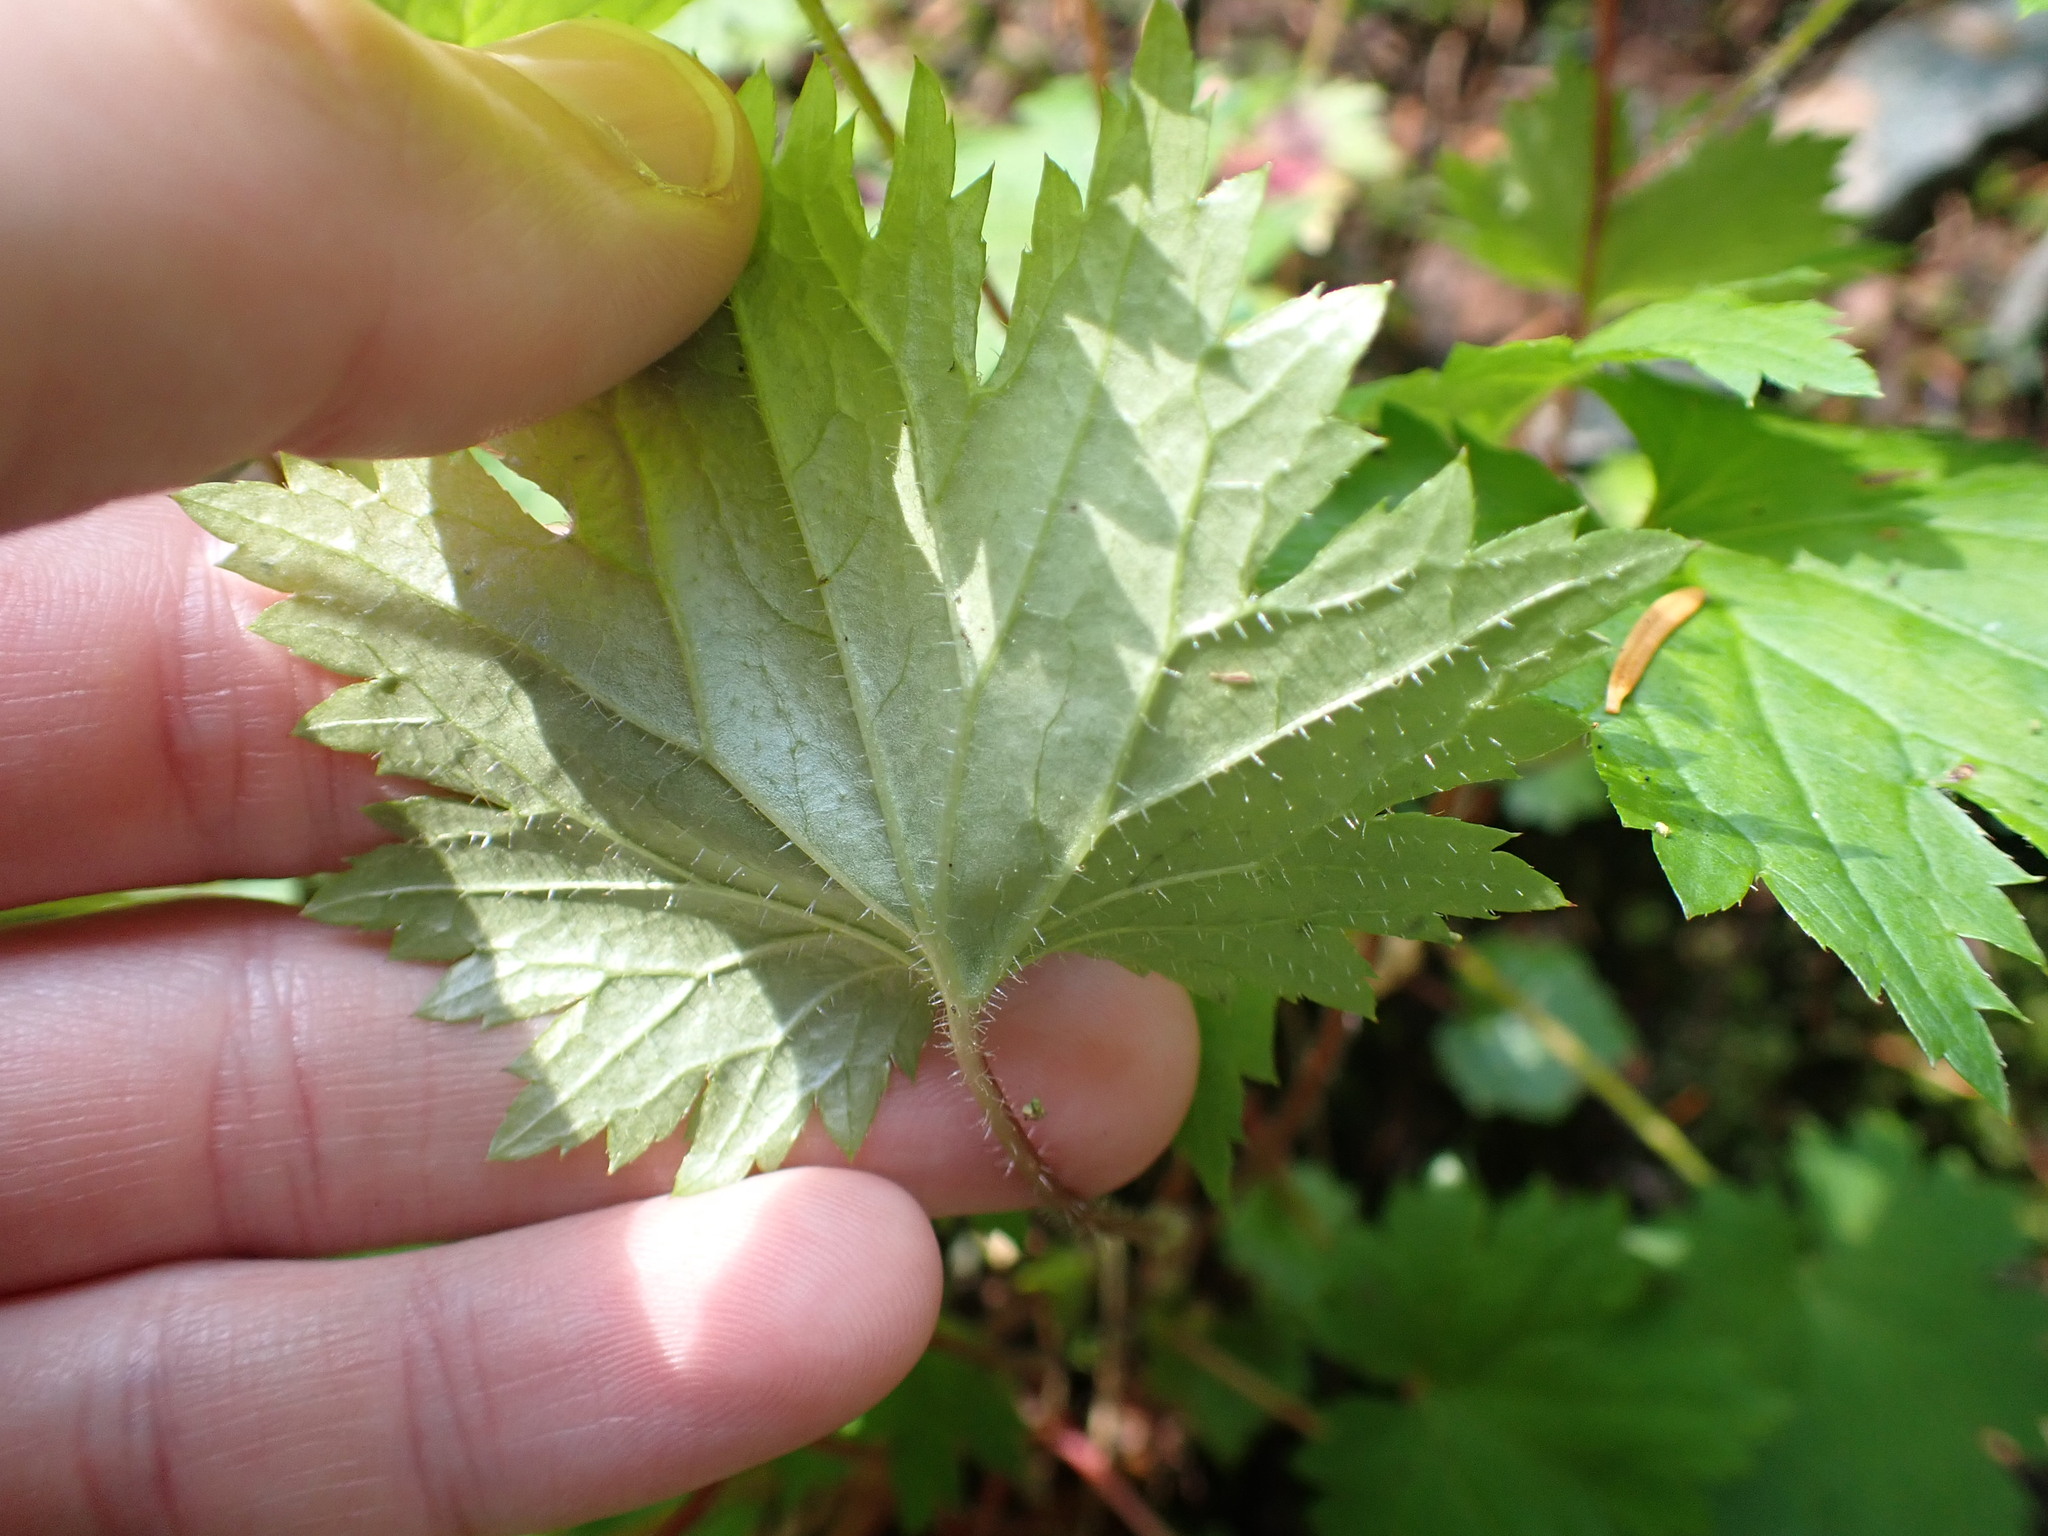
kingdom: Plantae
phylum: Tracheophyta
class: Magnoliopsida
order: Saxifragales
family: Saxifragaceae
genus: Boykinia
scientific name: Boykinia occidentalis
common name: Coast boykinia
